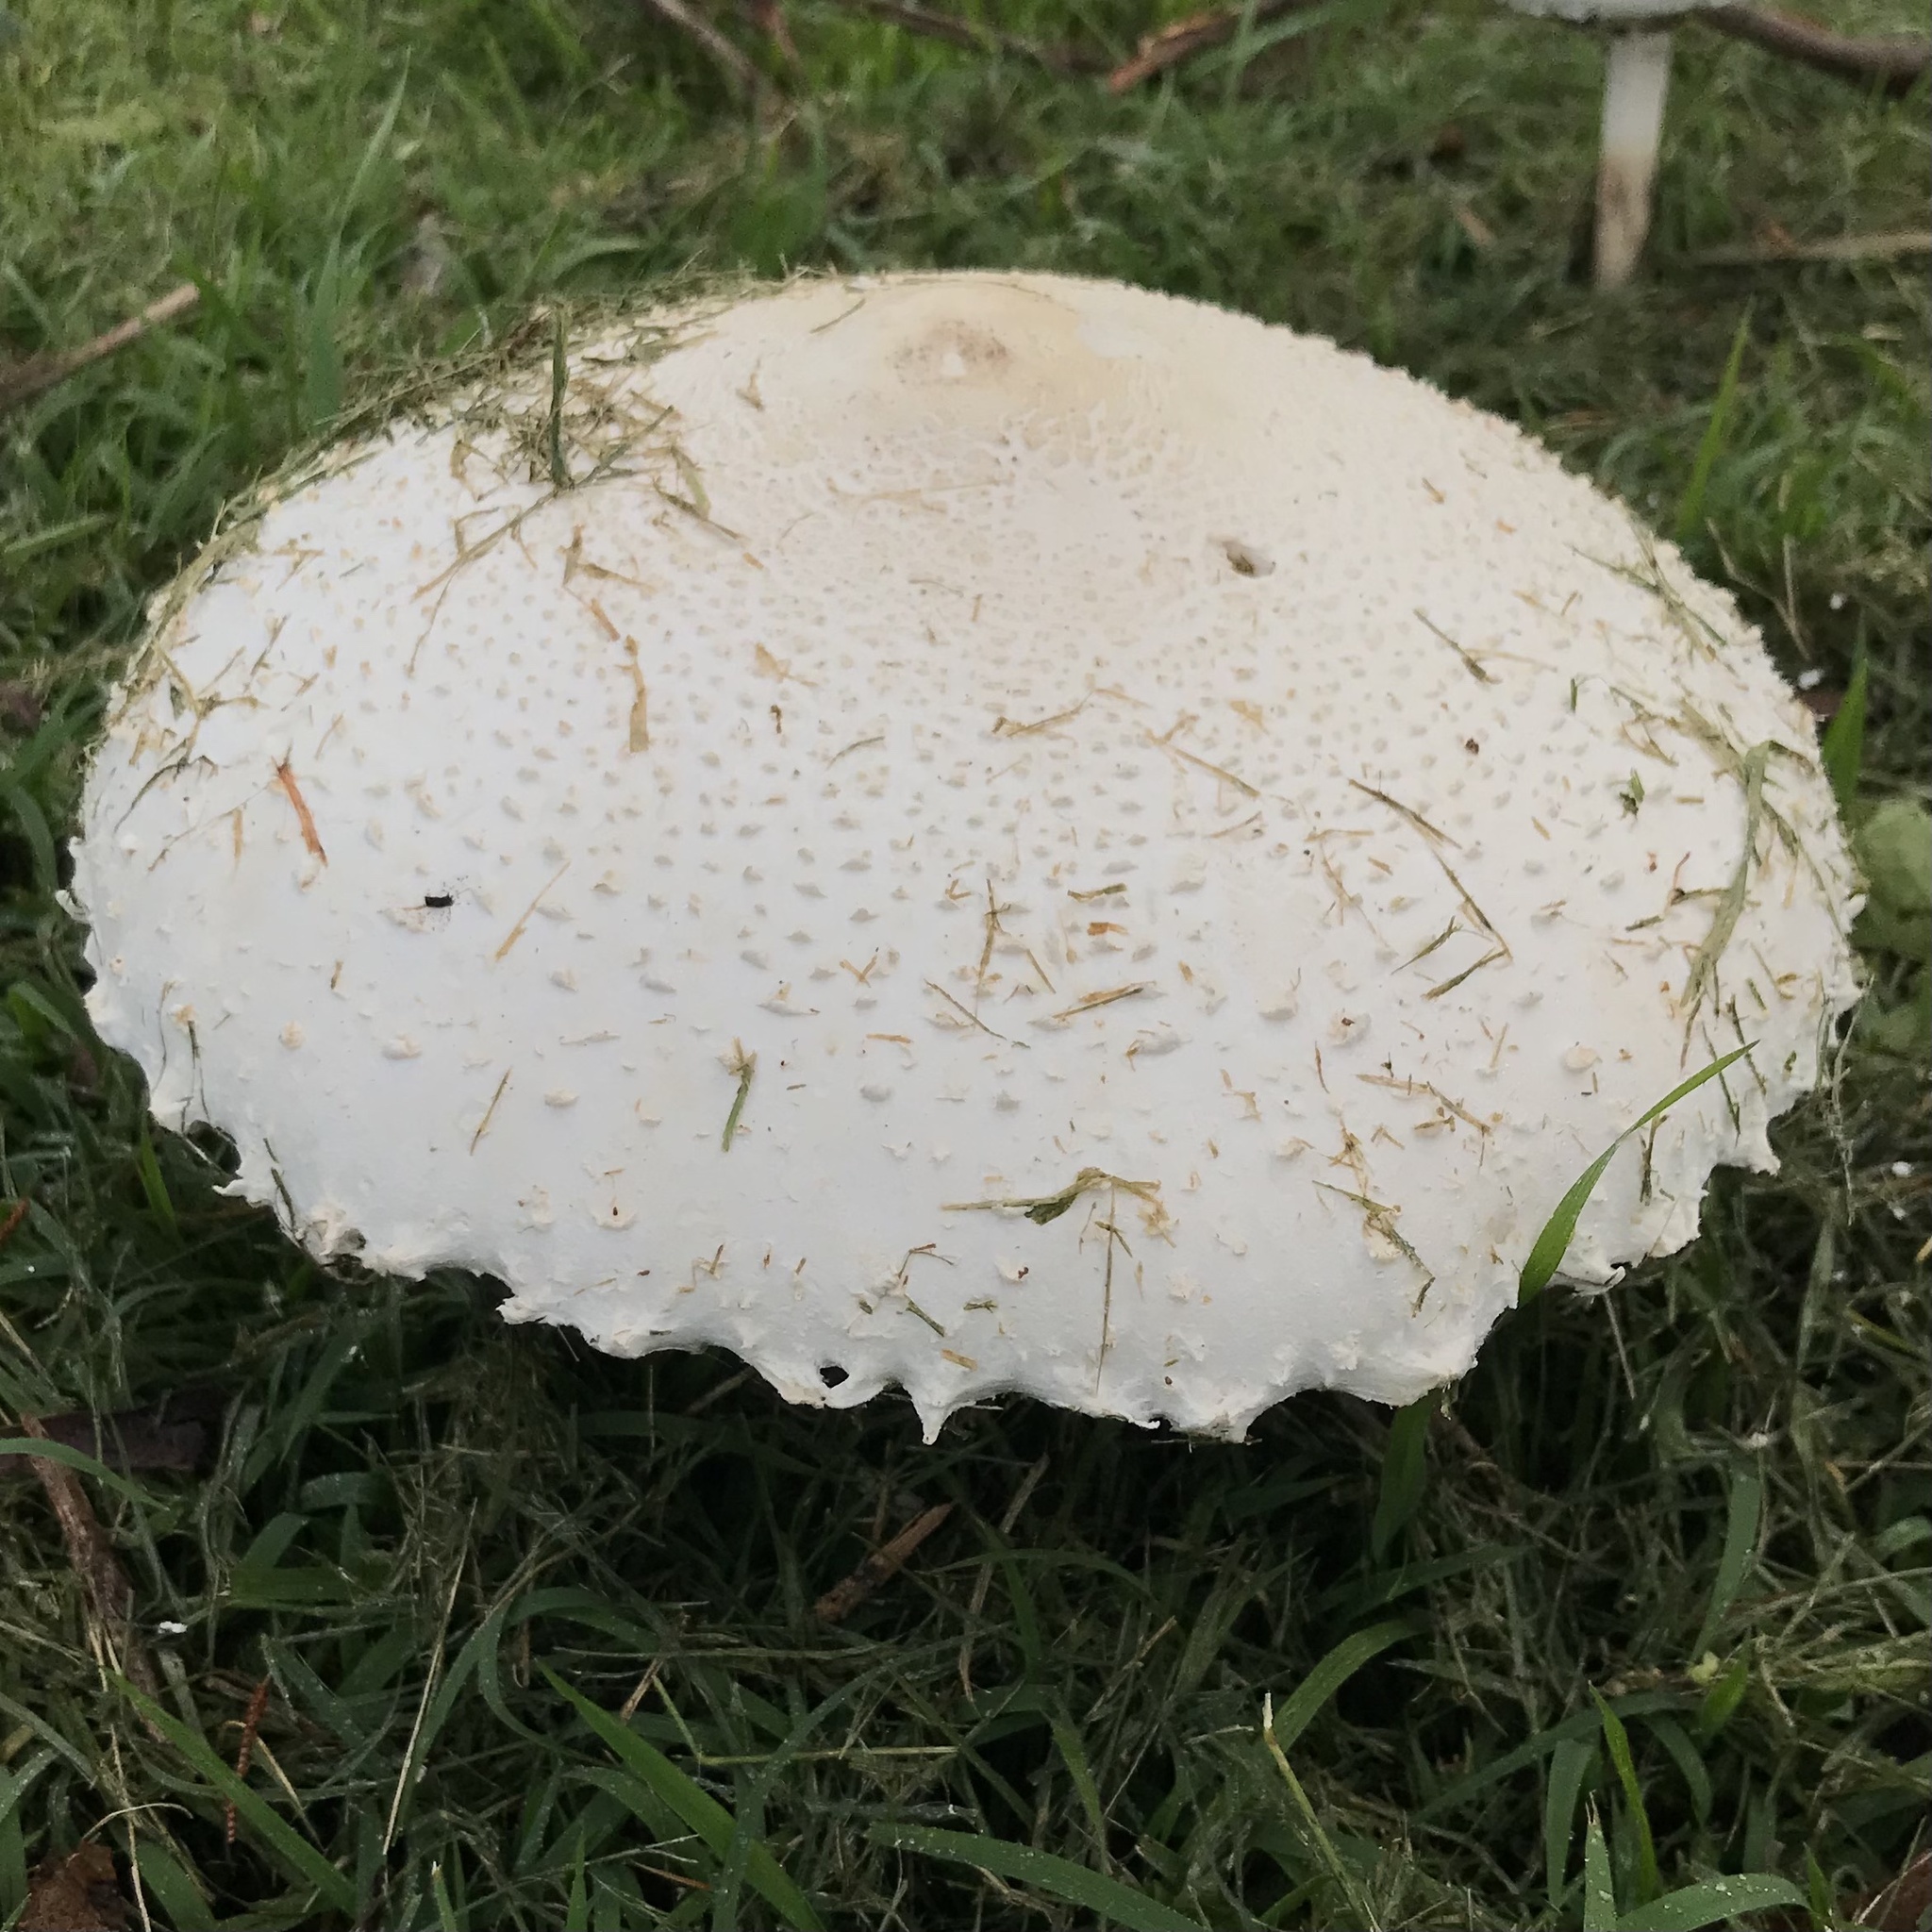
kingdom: Fungi
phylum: Basidiomycota
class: Agaricomycetes
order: Agaricales
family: Agaricaceae
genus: Macrolepiota
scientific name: Macrolepiota dolichaula
